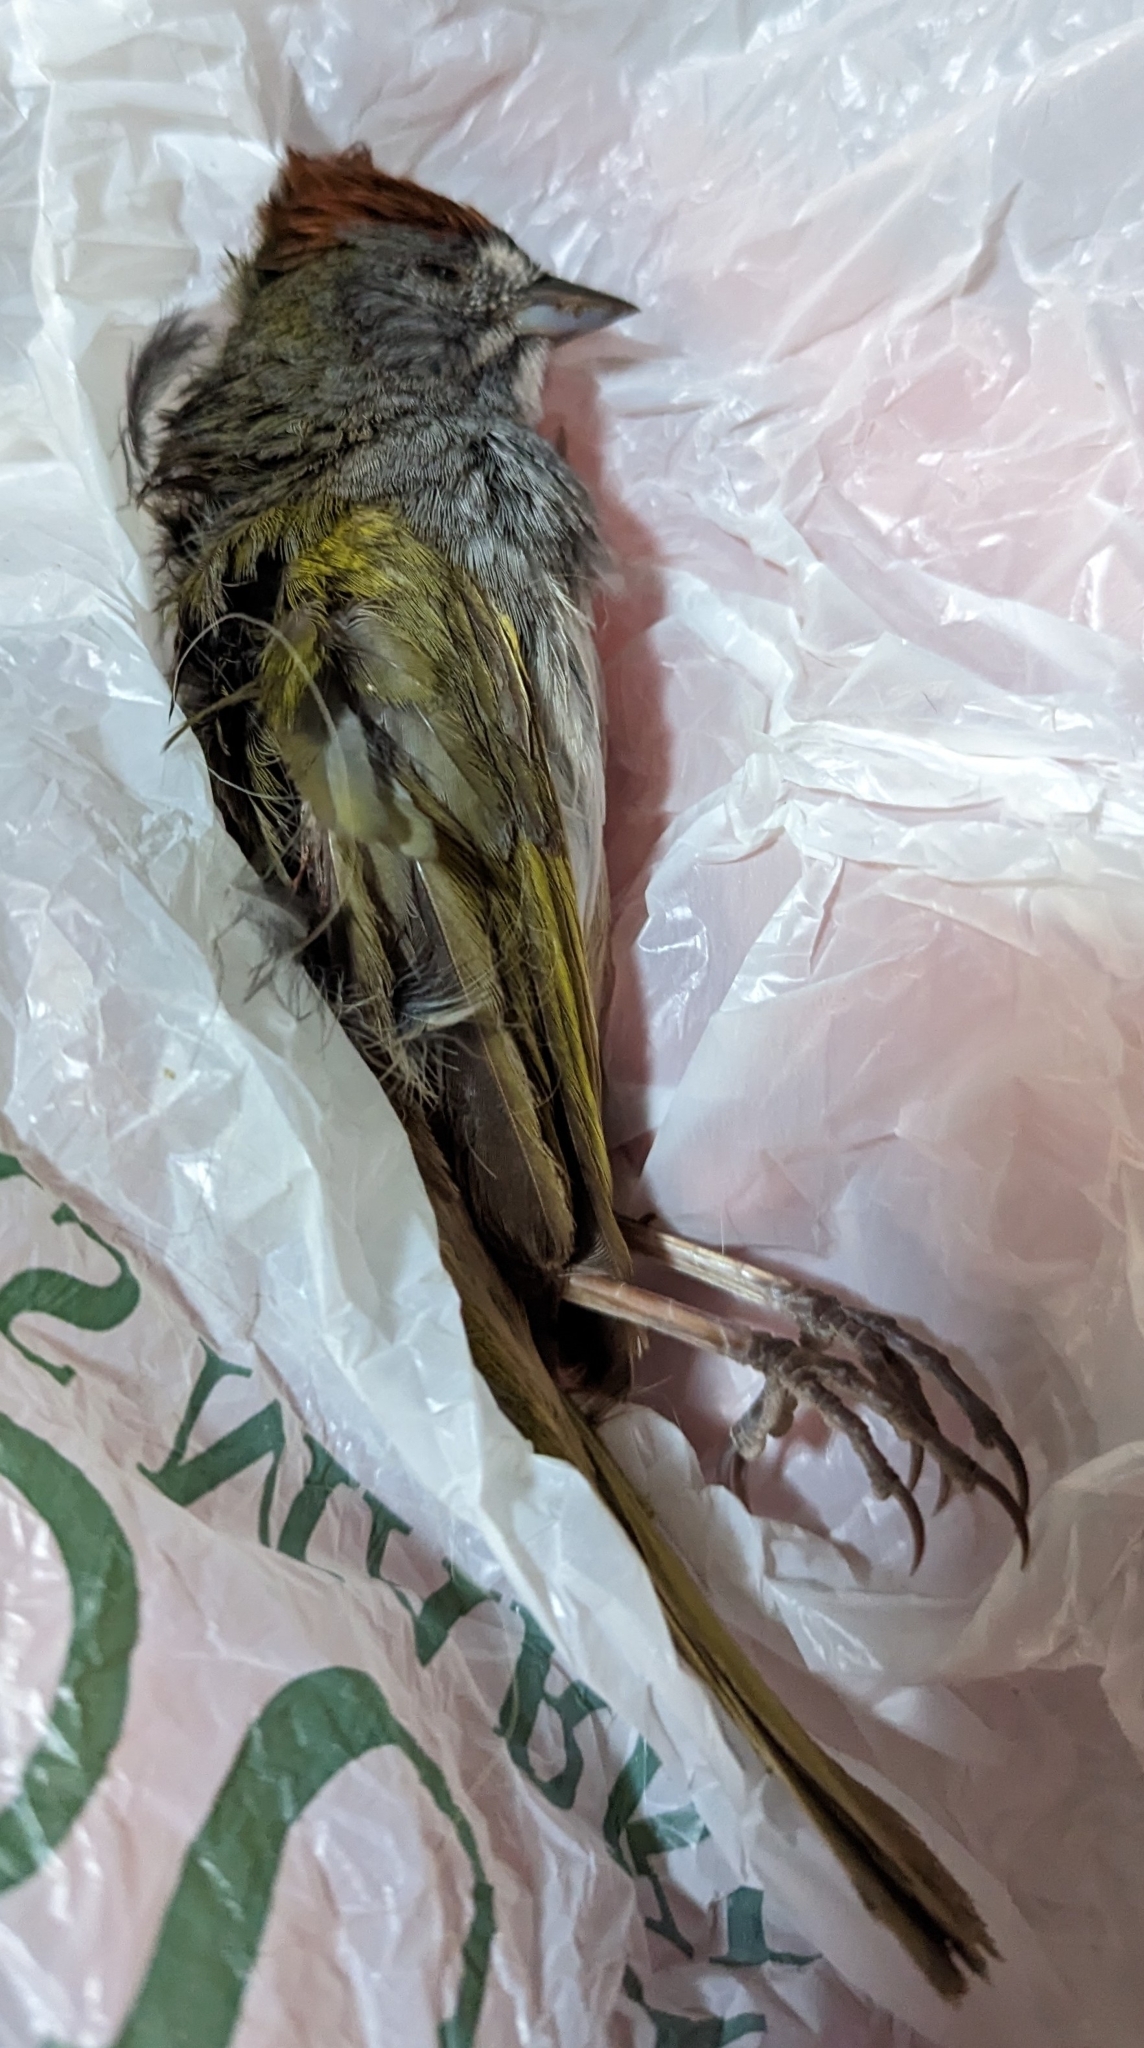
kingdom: Animalia
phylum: Chordata
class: Aves
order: Passeriformes
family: Passerellidae
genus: Pipilo
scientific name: Pipilo chlorurus
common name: Green-tailed towhee
